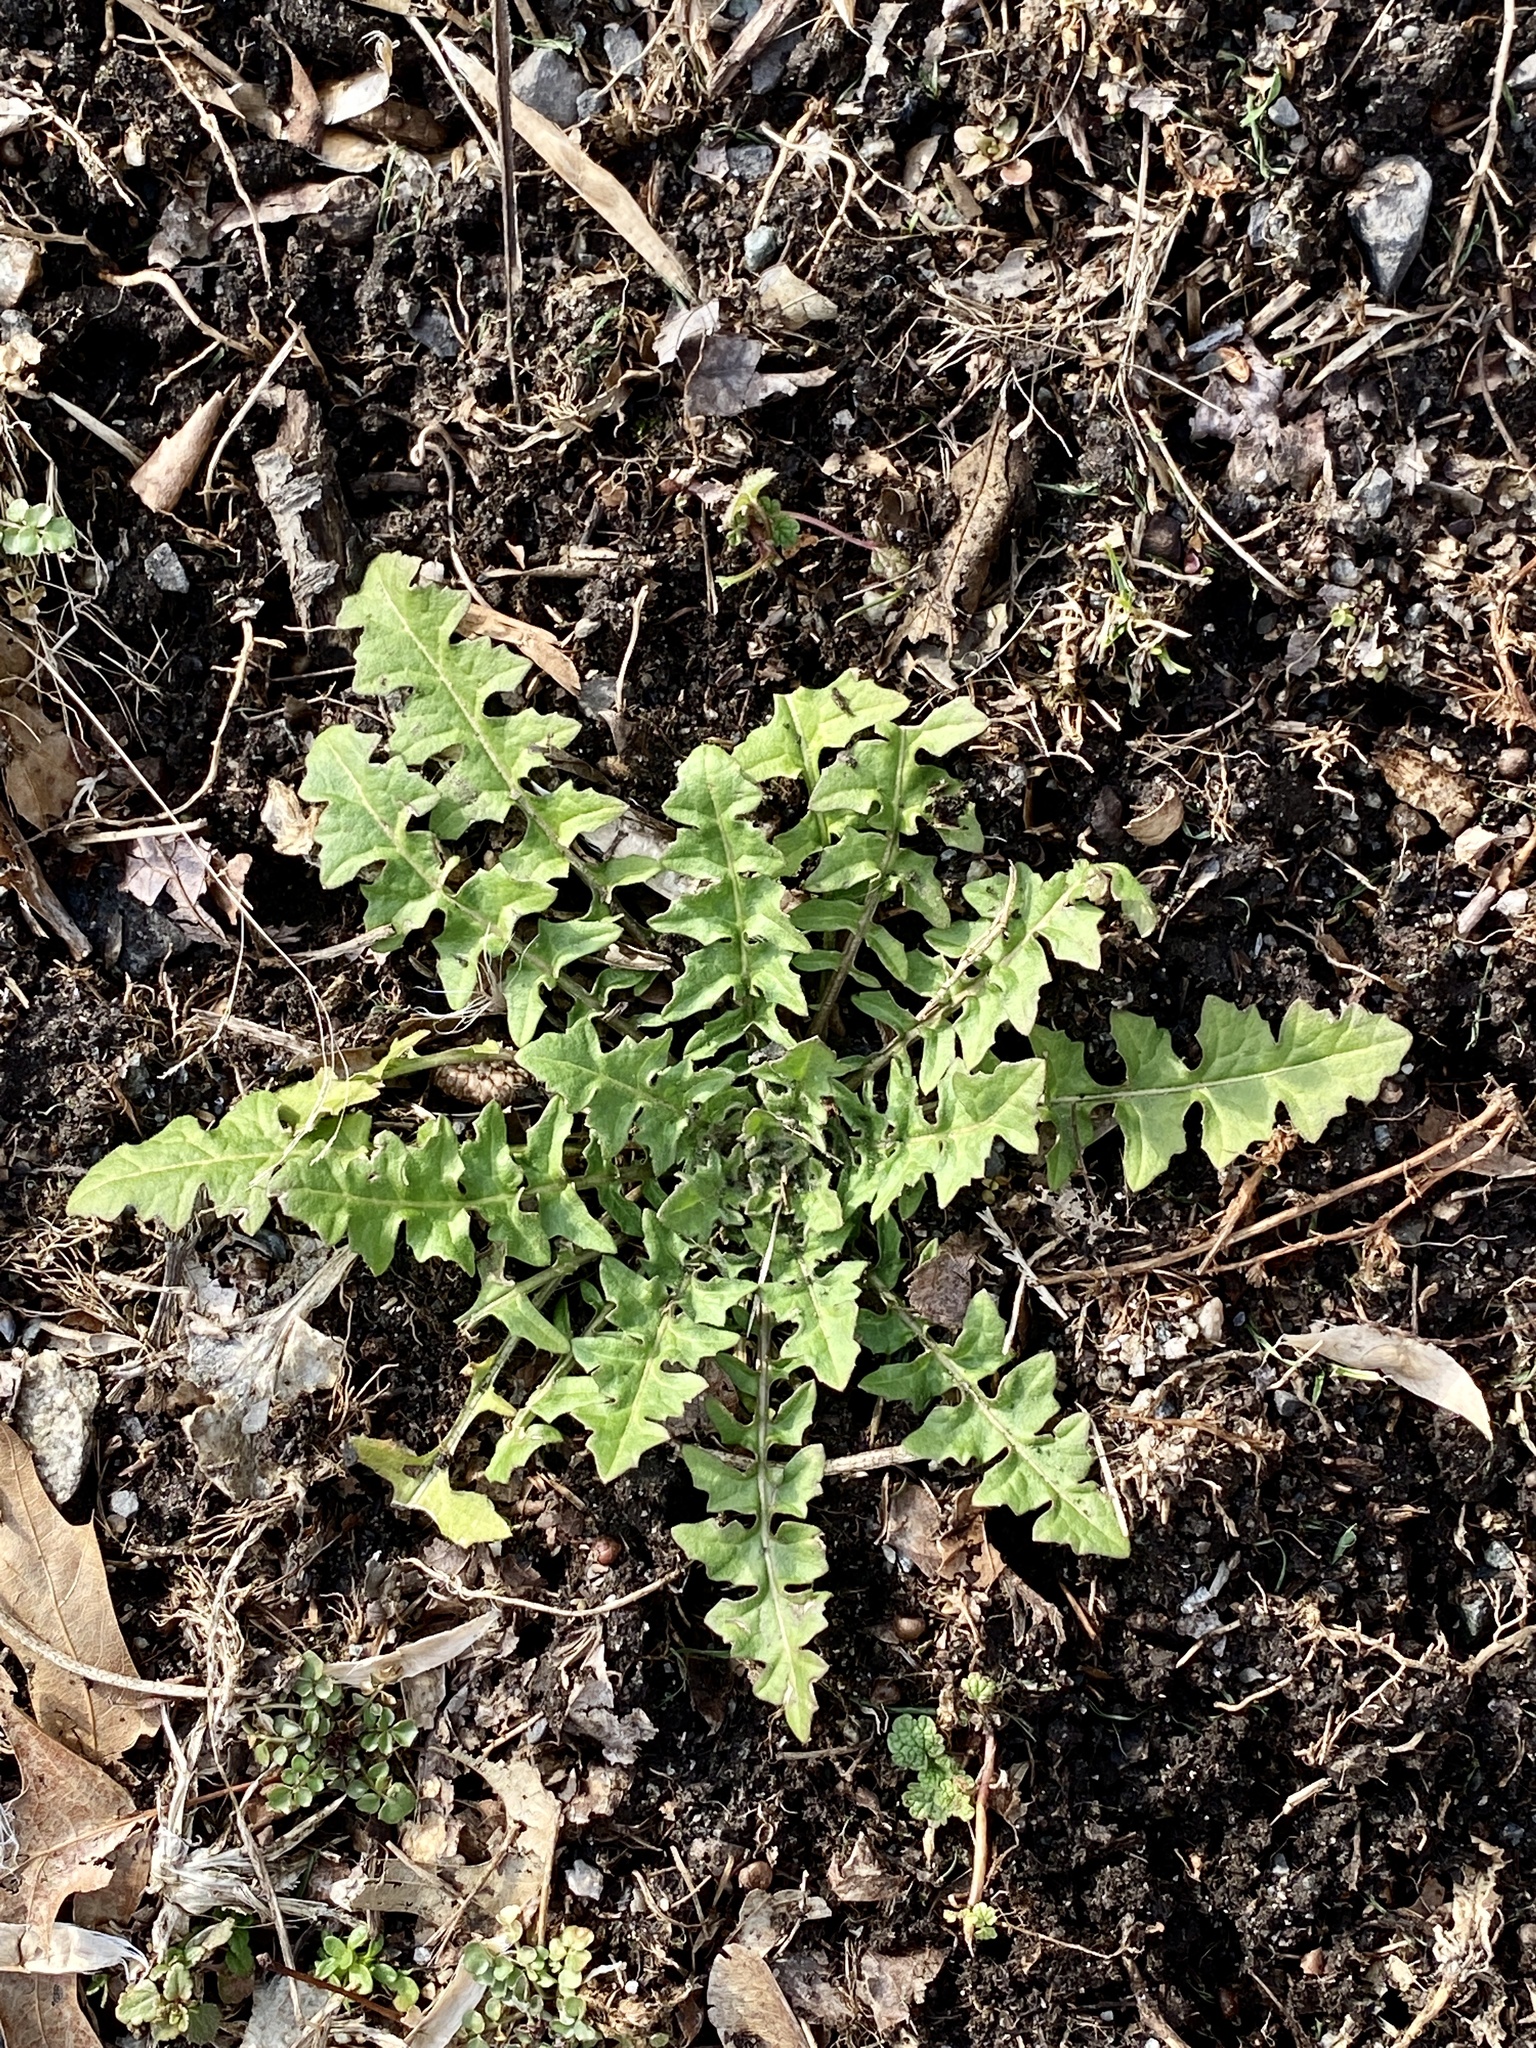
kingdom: Plantae
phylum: Tracheophyta
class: Magnoliopsida
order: Brassicales
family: Brassicaceae
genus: Capsella
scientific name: Capsella bursa-pastoris
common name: Shepherd's purse
